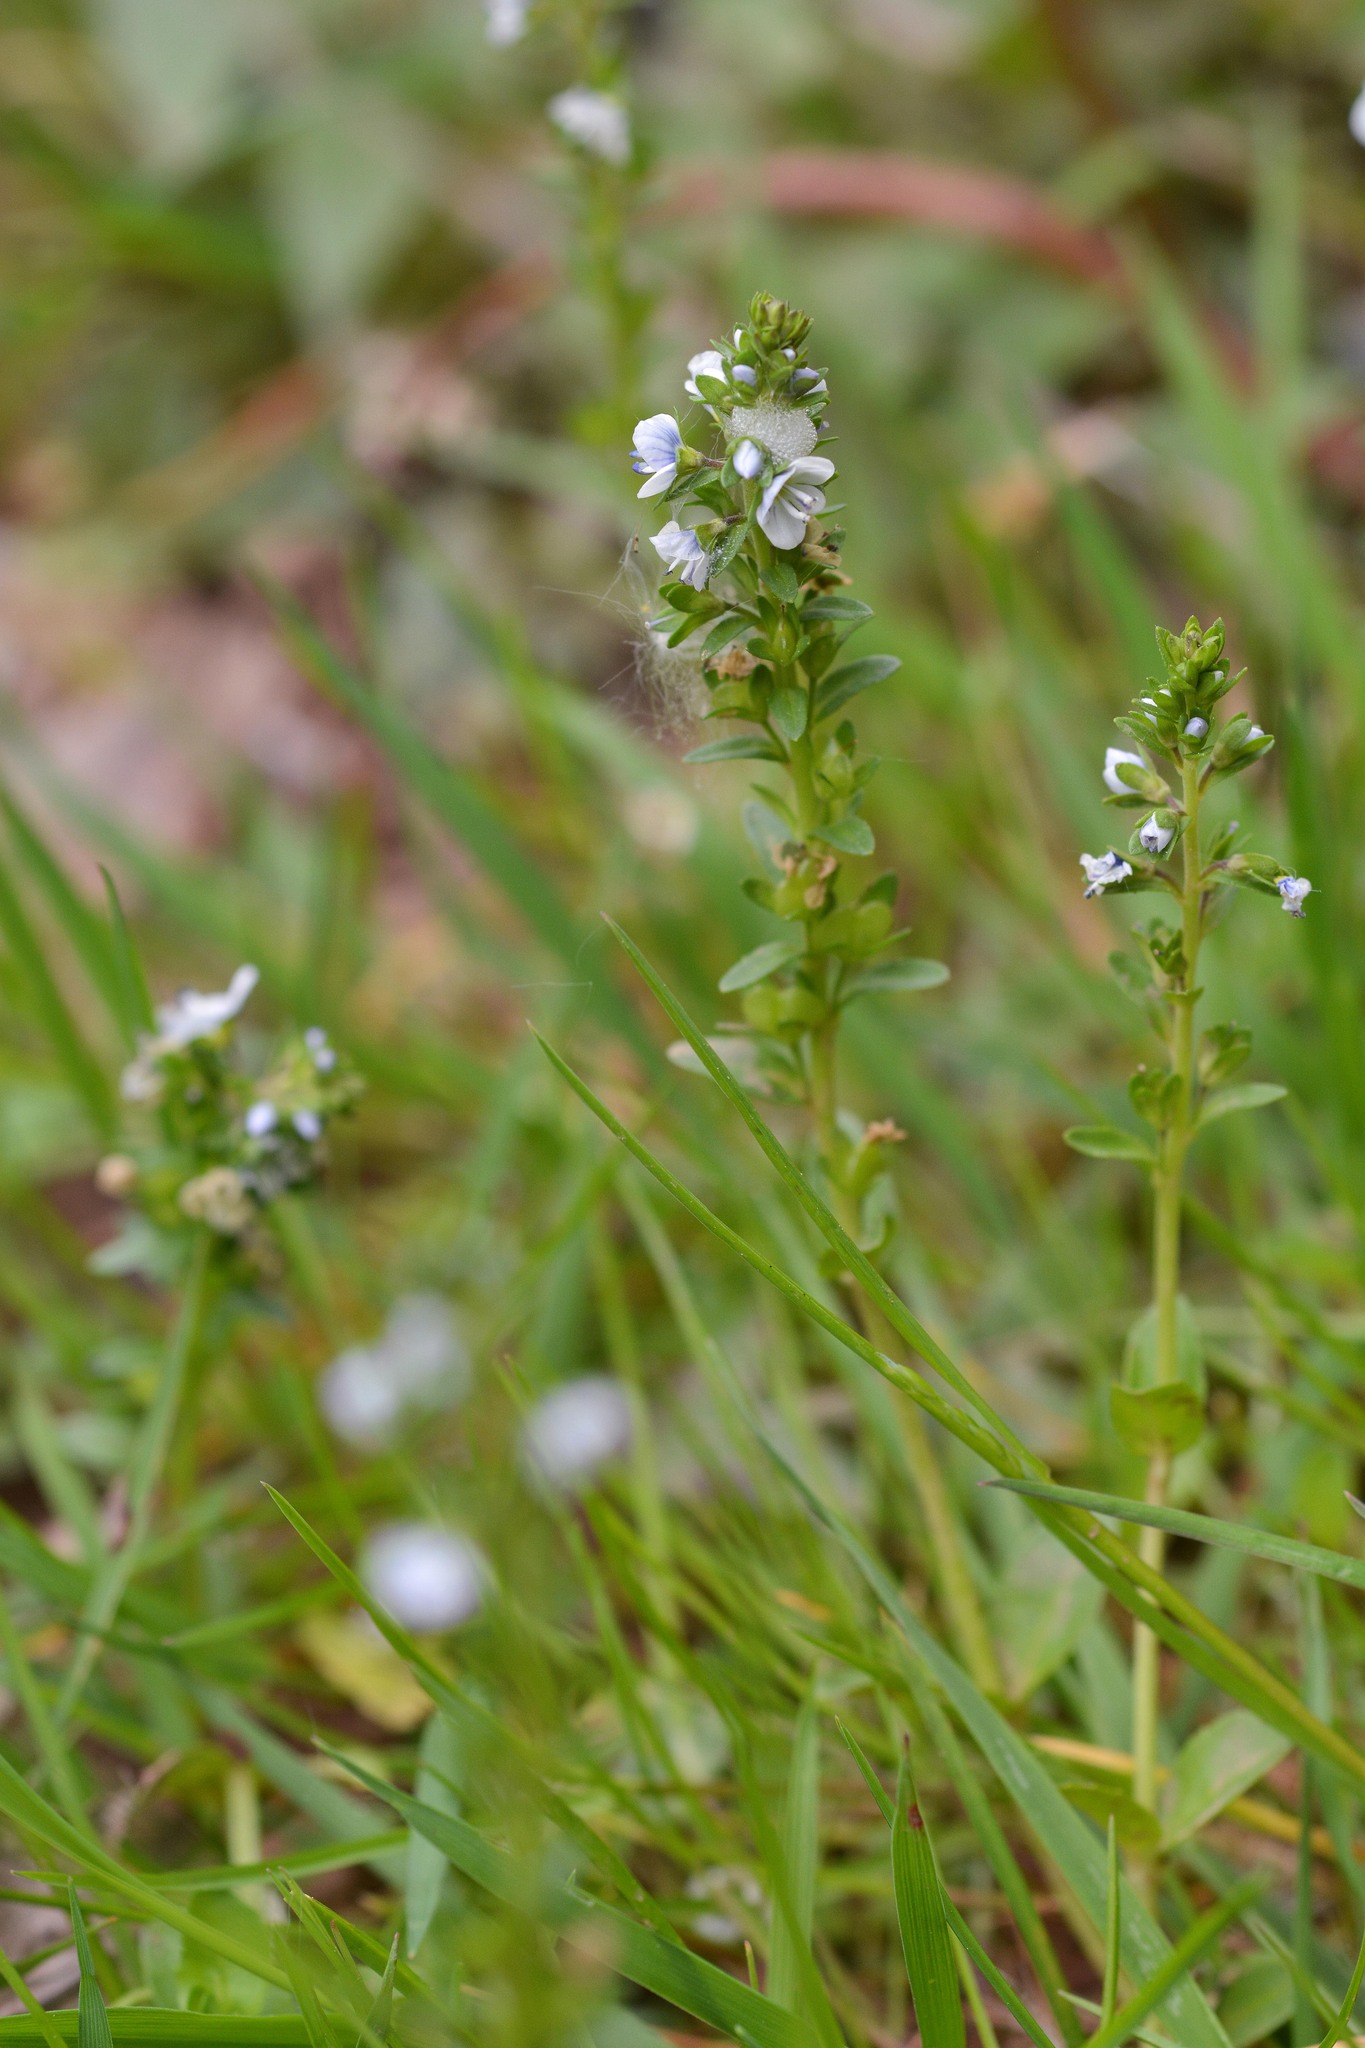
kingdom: Plantae
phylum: Tracheophyta
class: Magnoliopsida
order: Lamiales
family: Plantaginaceae
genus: Veronica
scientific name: Veronica serpyllifolia
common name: Thyme-leaved speedwell
